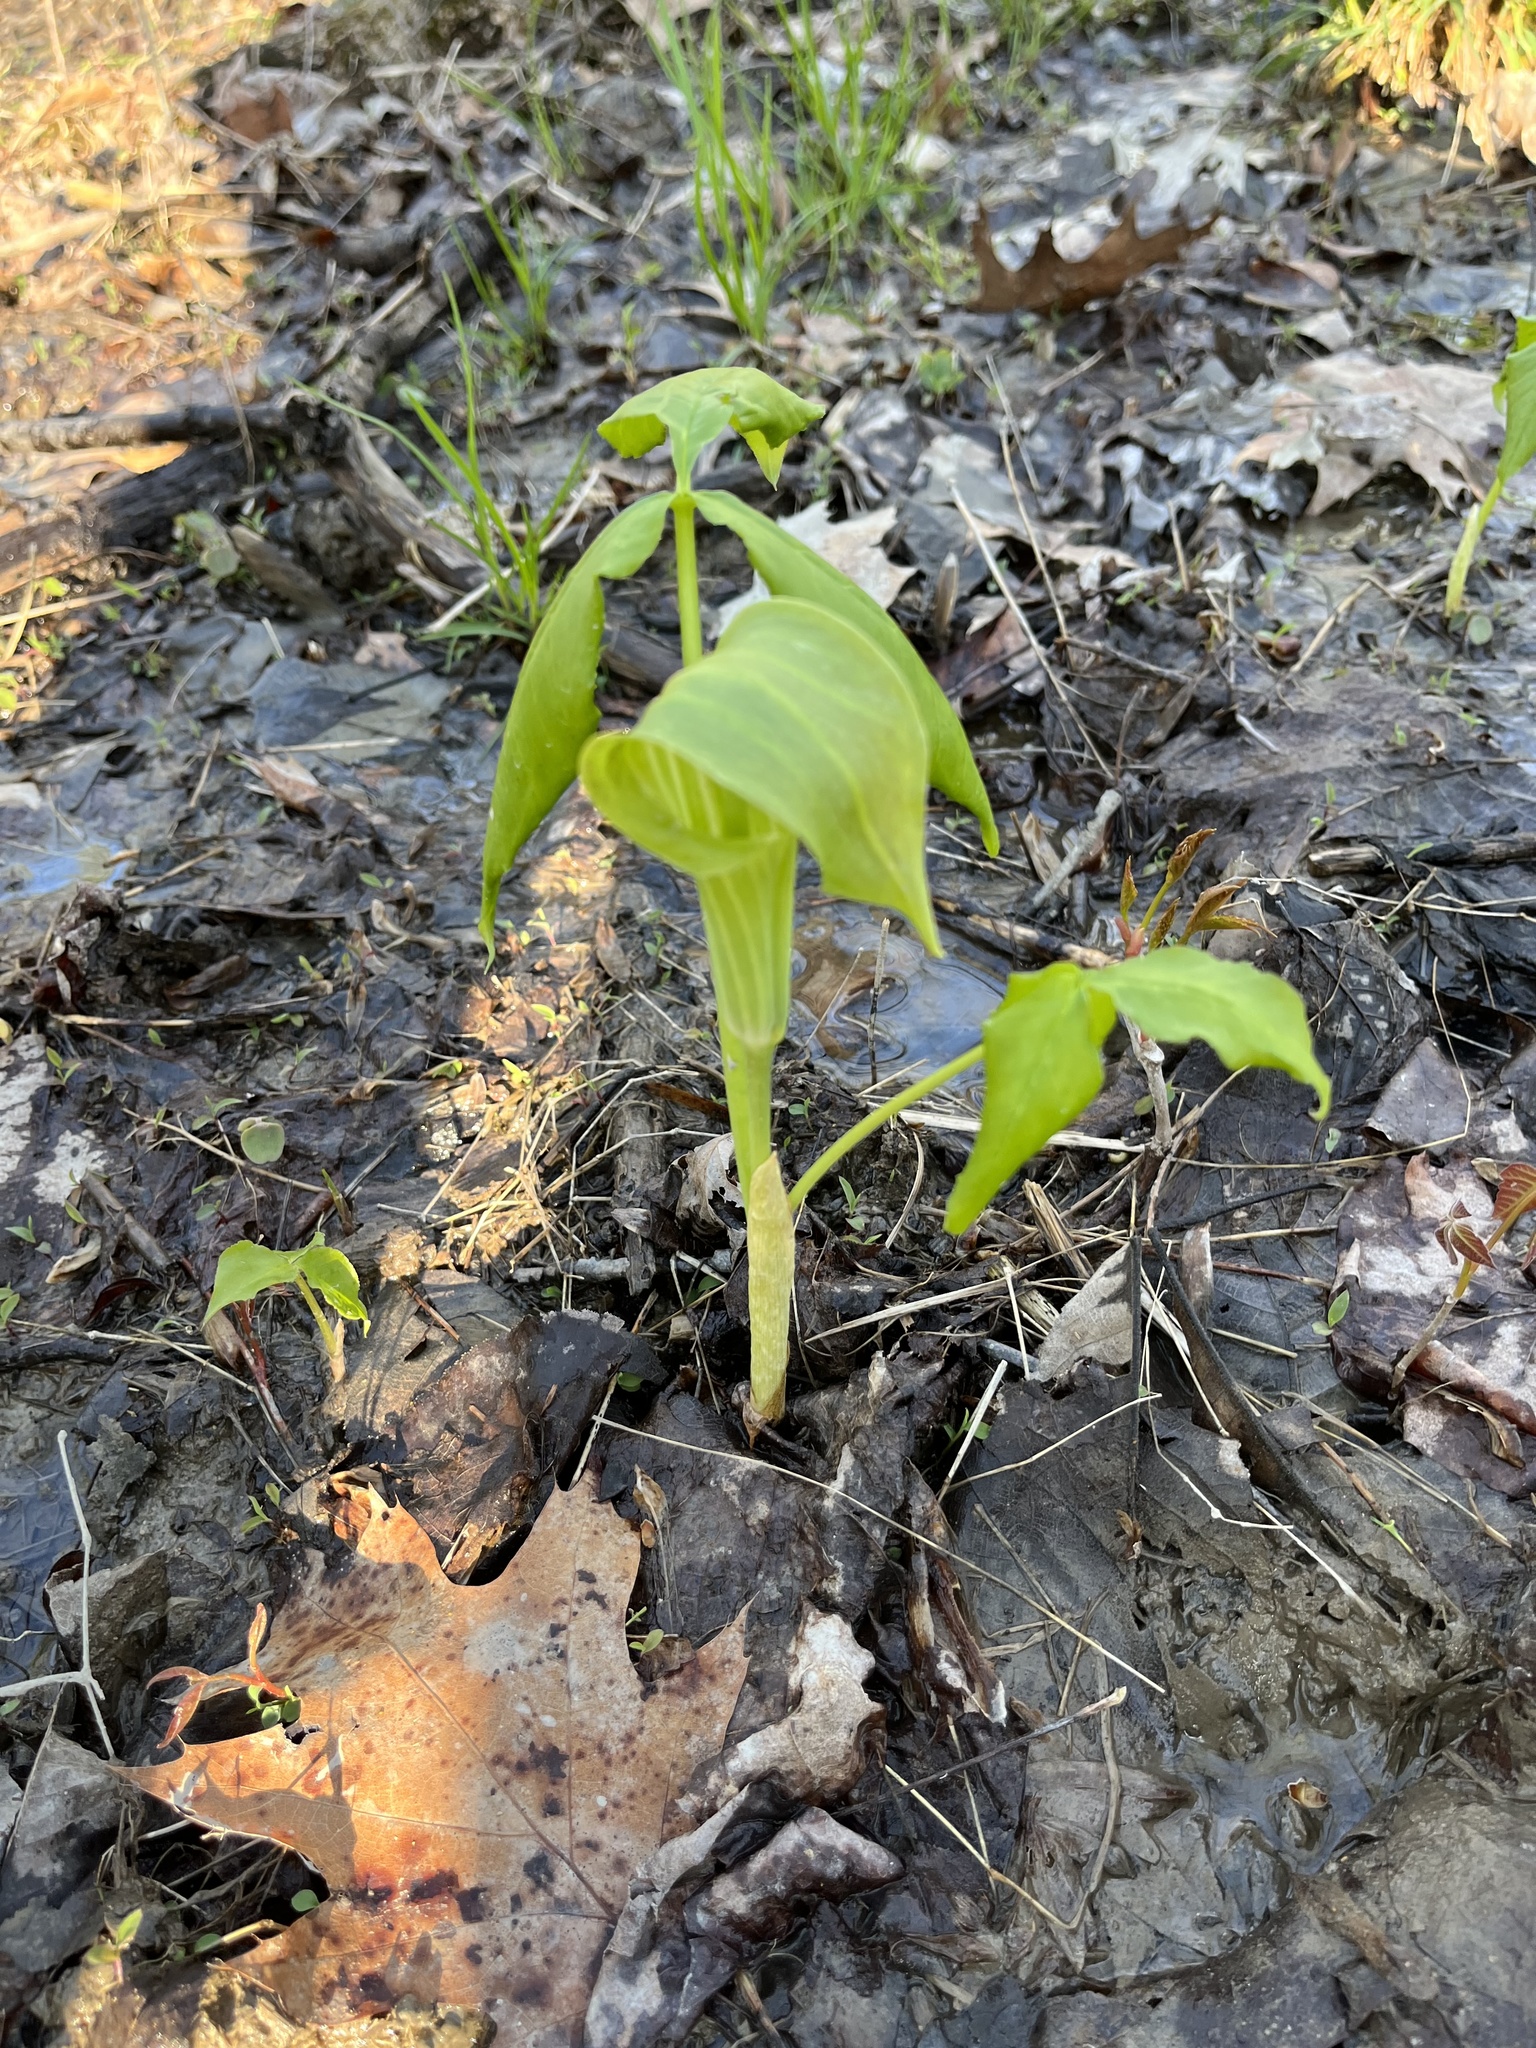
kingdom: Plantae
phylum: Tracheophyta
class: Liliopsida
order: Alismatales
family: Araceae
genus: Arisaema
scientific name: Arisaema triphyllum
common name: Jack-in-the-pulpit
